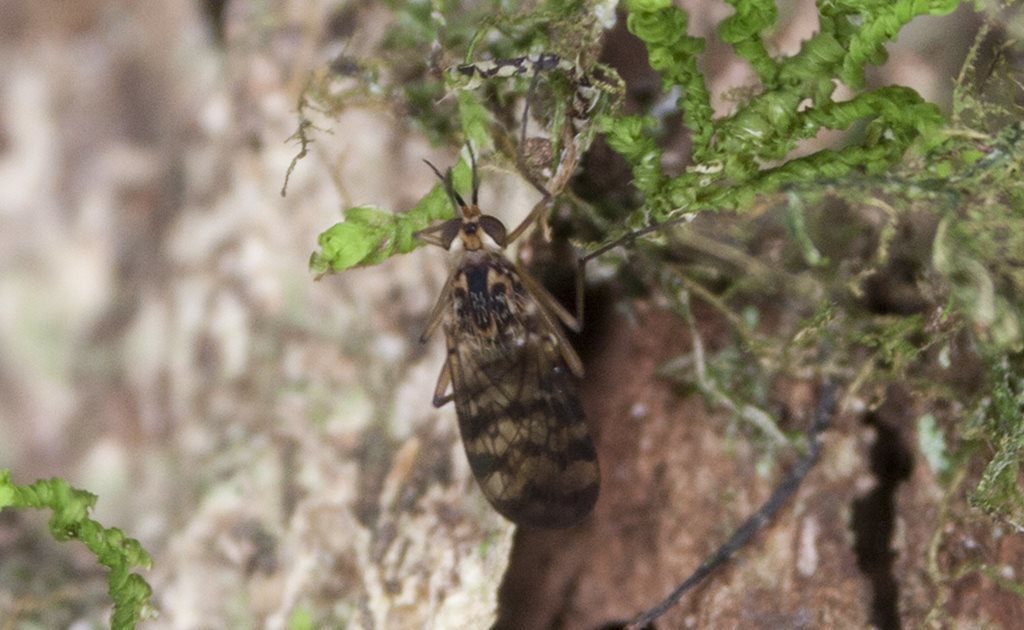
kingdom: Animalia
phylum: Arthropoda
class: Insecta
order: Diptera
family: Anisopodidae
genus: Sylvicola
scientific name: Sylvicola dubius
